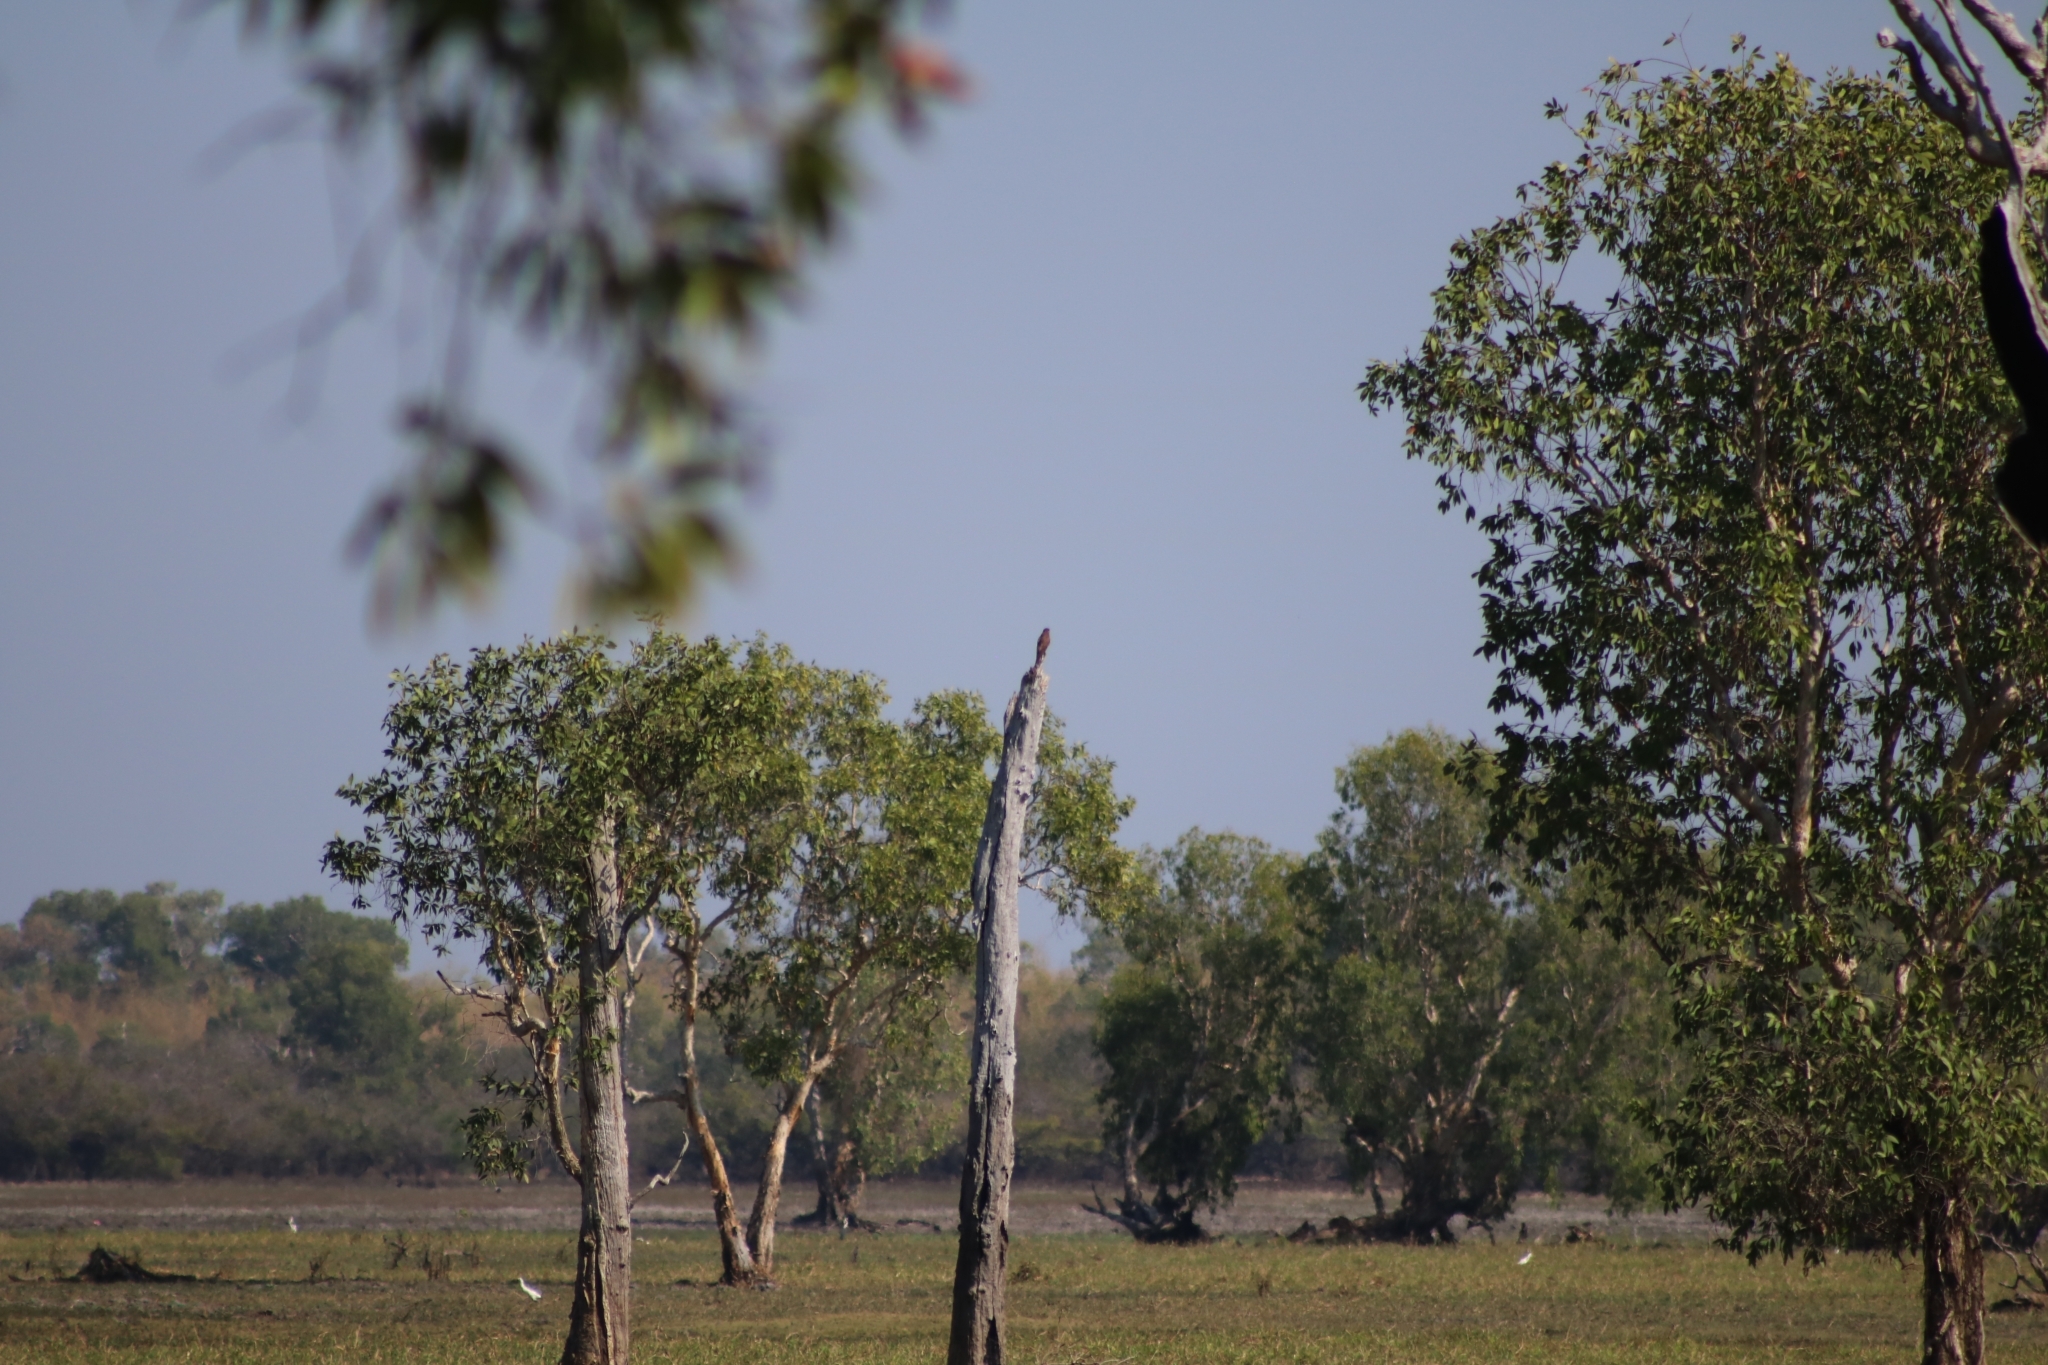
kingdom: Animalia
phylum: Chordata
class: Aves
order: Falconiformes
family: Falconidae
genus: Falco
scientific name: Falco berigora
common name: Brown falcon
